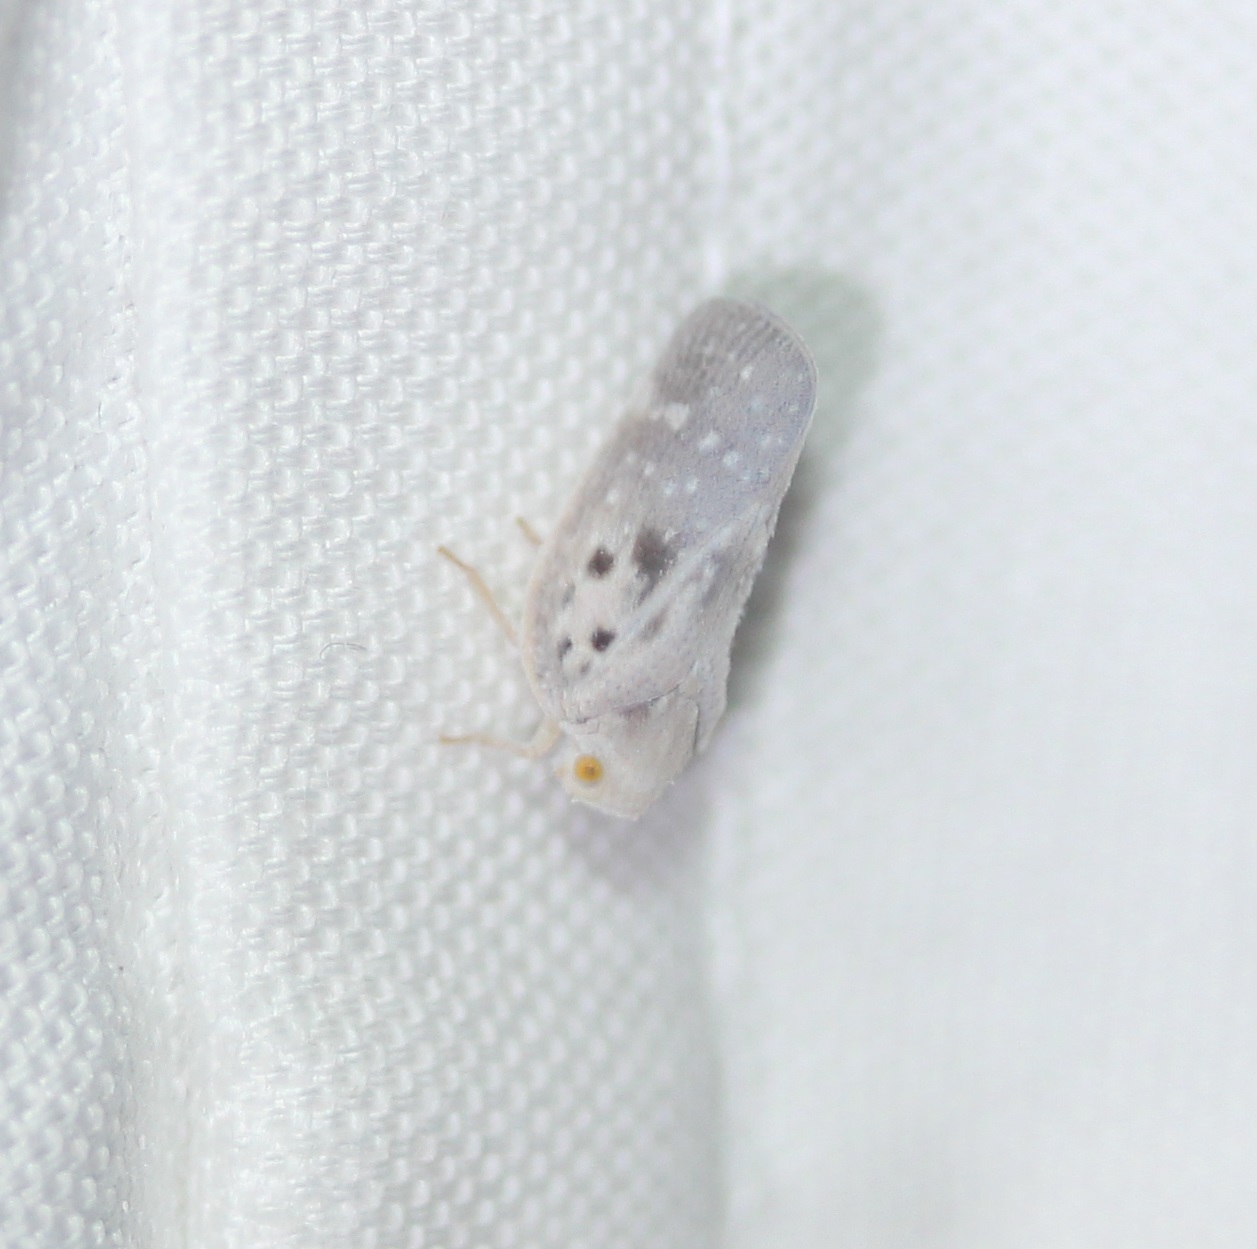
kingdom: Animalia
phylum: Arthropoda
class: Insecta
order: Hemiptera
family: Flatidae
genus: Metcalfa
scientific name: Metcalfa pruinosa
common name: Citrus flatid planthopper
